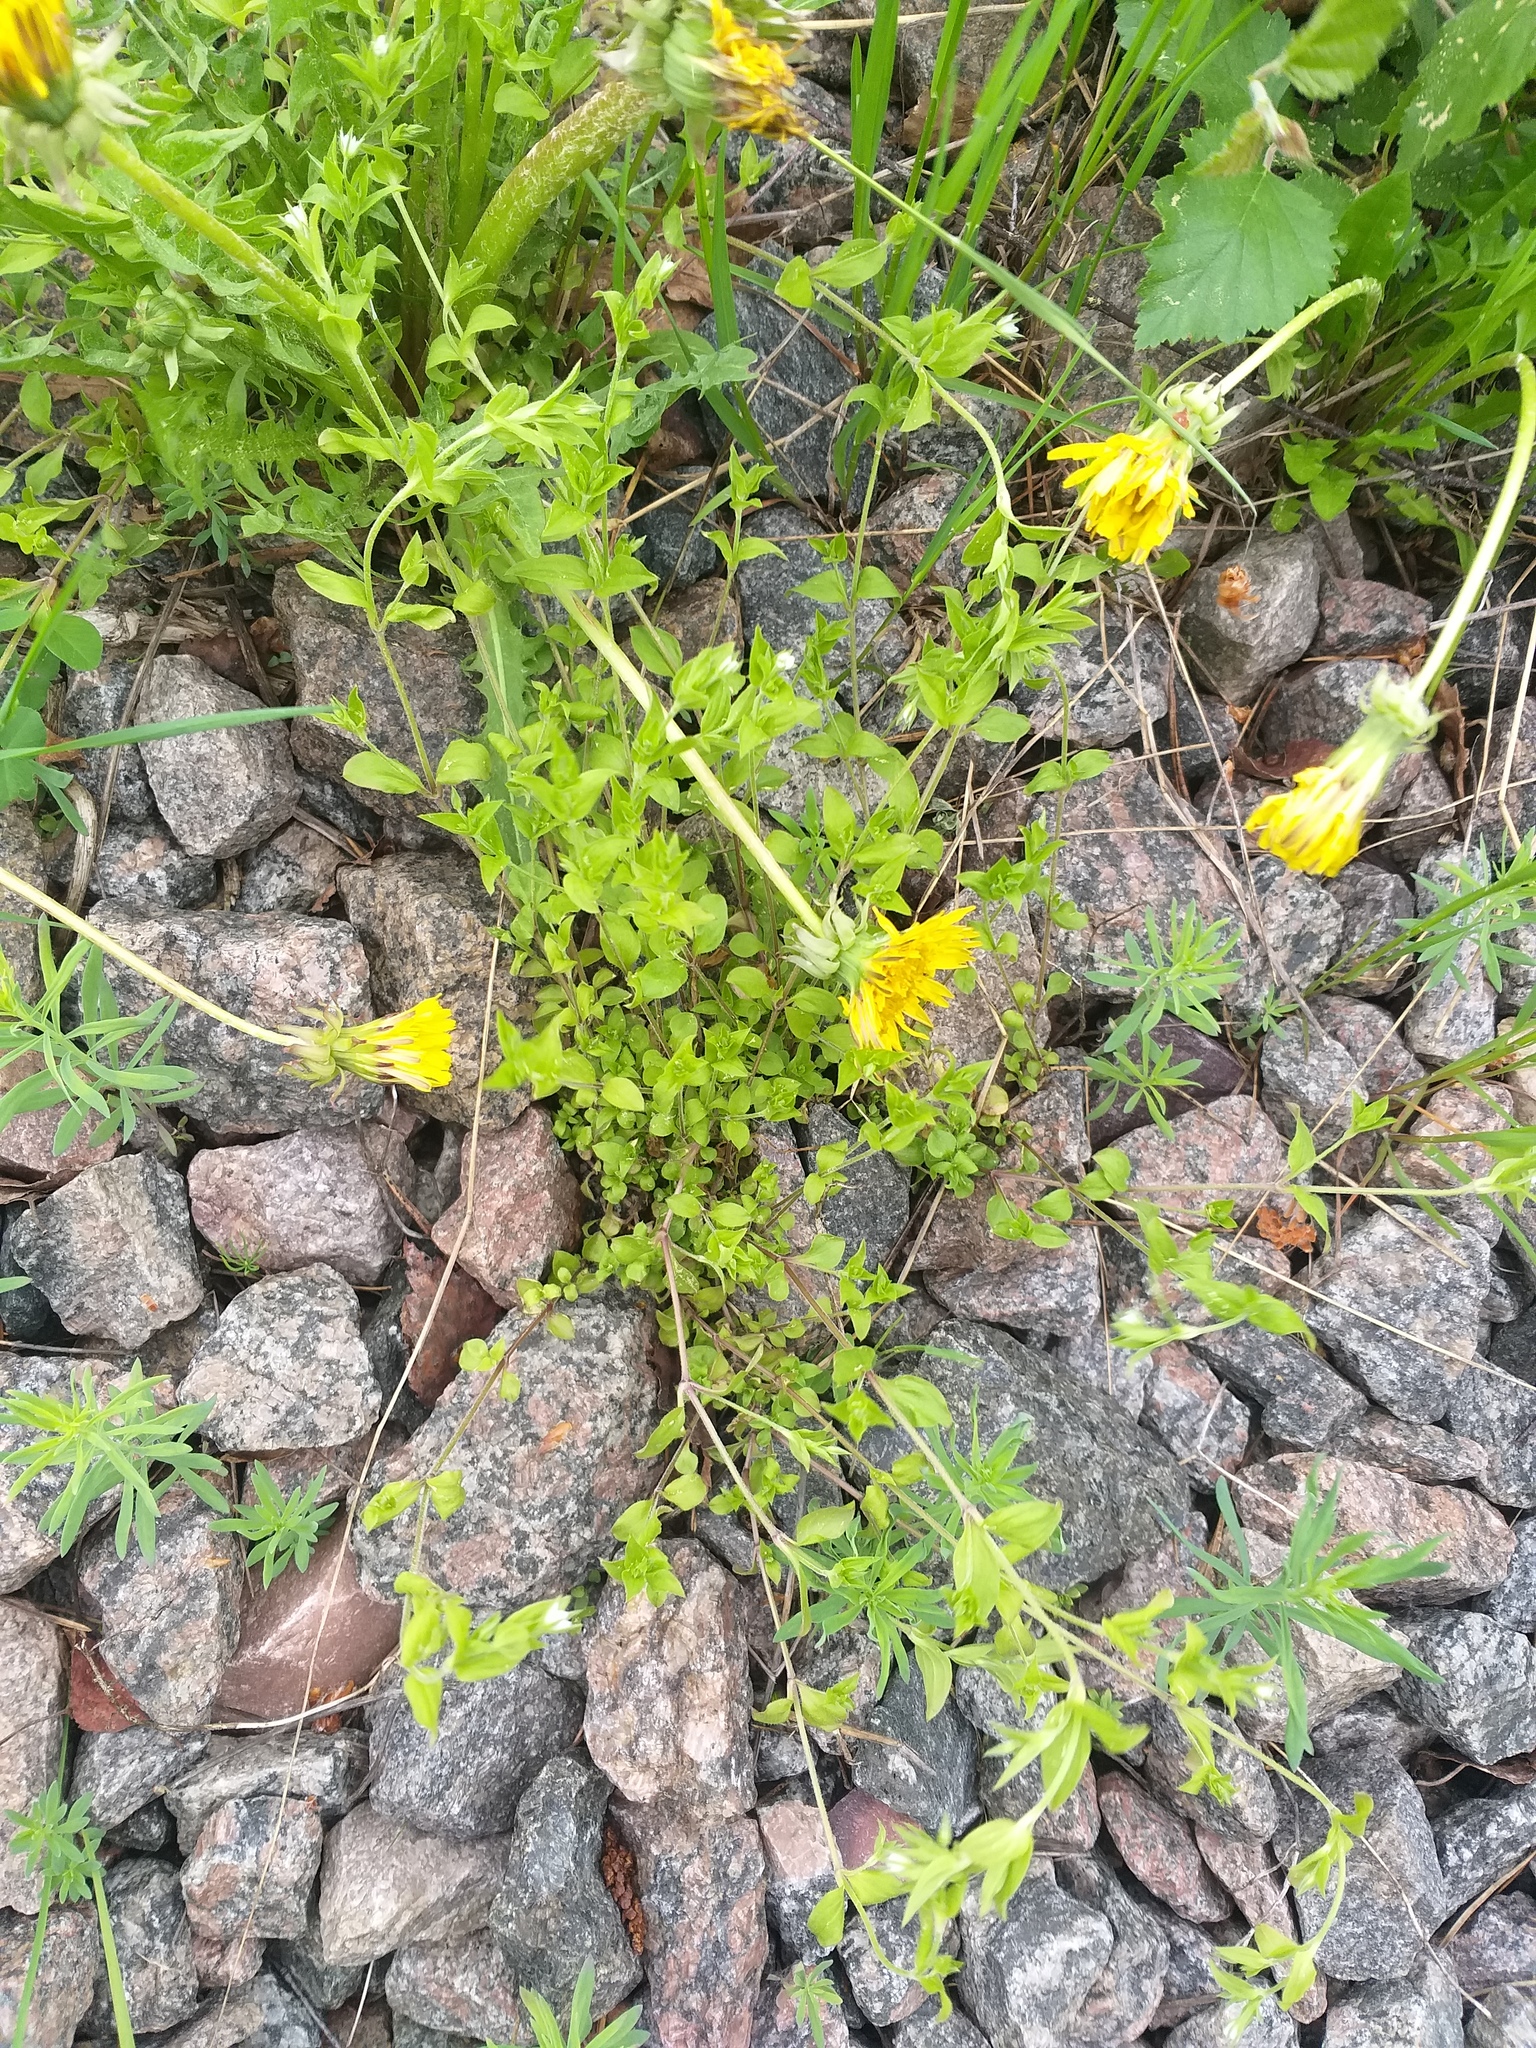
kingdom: Plantae
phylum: Tracheophyta
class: Magnoliopsida
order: Caryophyllales
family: Caryophyllaceae
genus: Moehringia
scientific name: Moehringia trinervia
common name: Three-nerved sandwort
